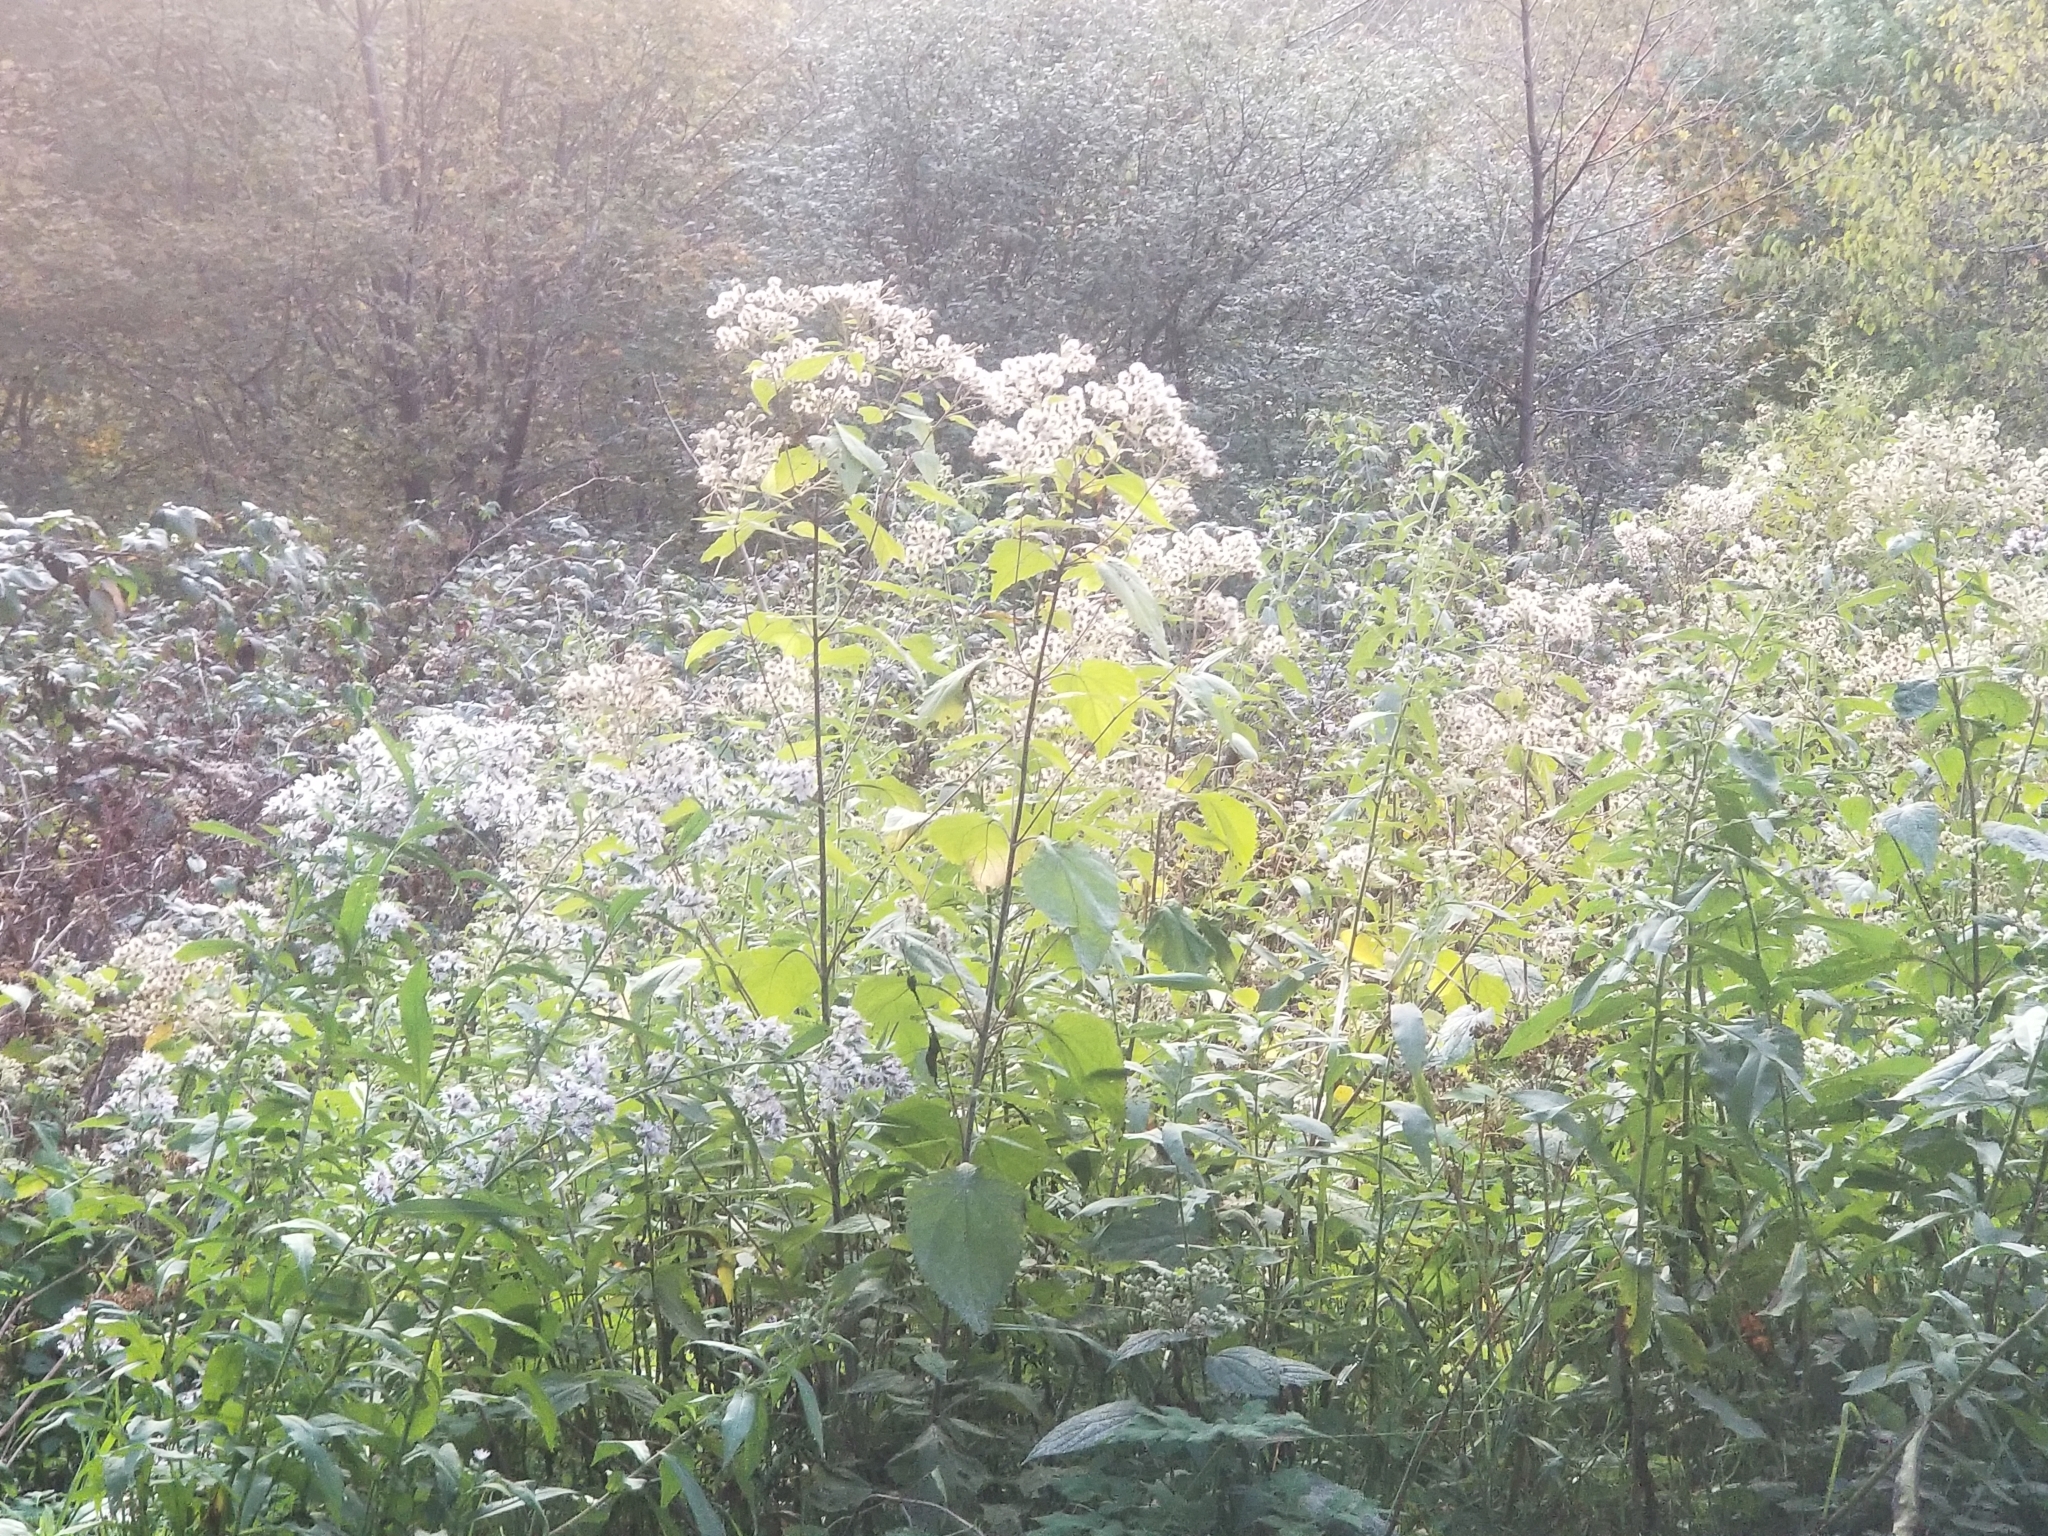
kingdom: Plantae
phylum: Tracheophyta
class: Magnoliopsida
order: Asterales
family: Asteraceae
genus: Ageratina
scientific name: Ageratina altissima
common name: White snakeroot
